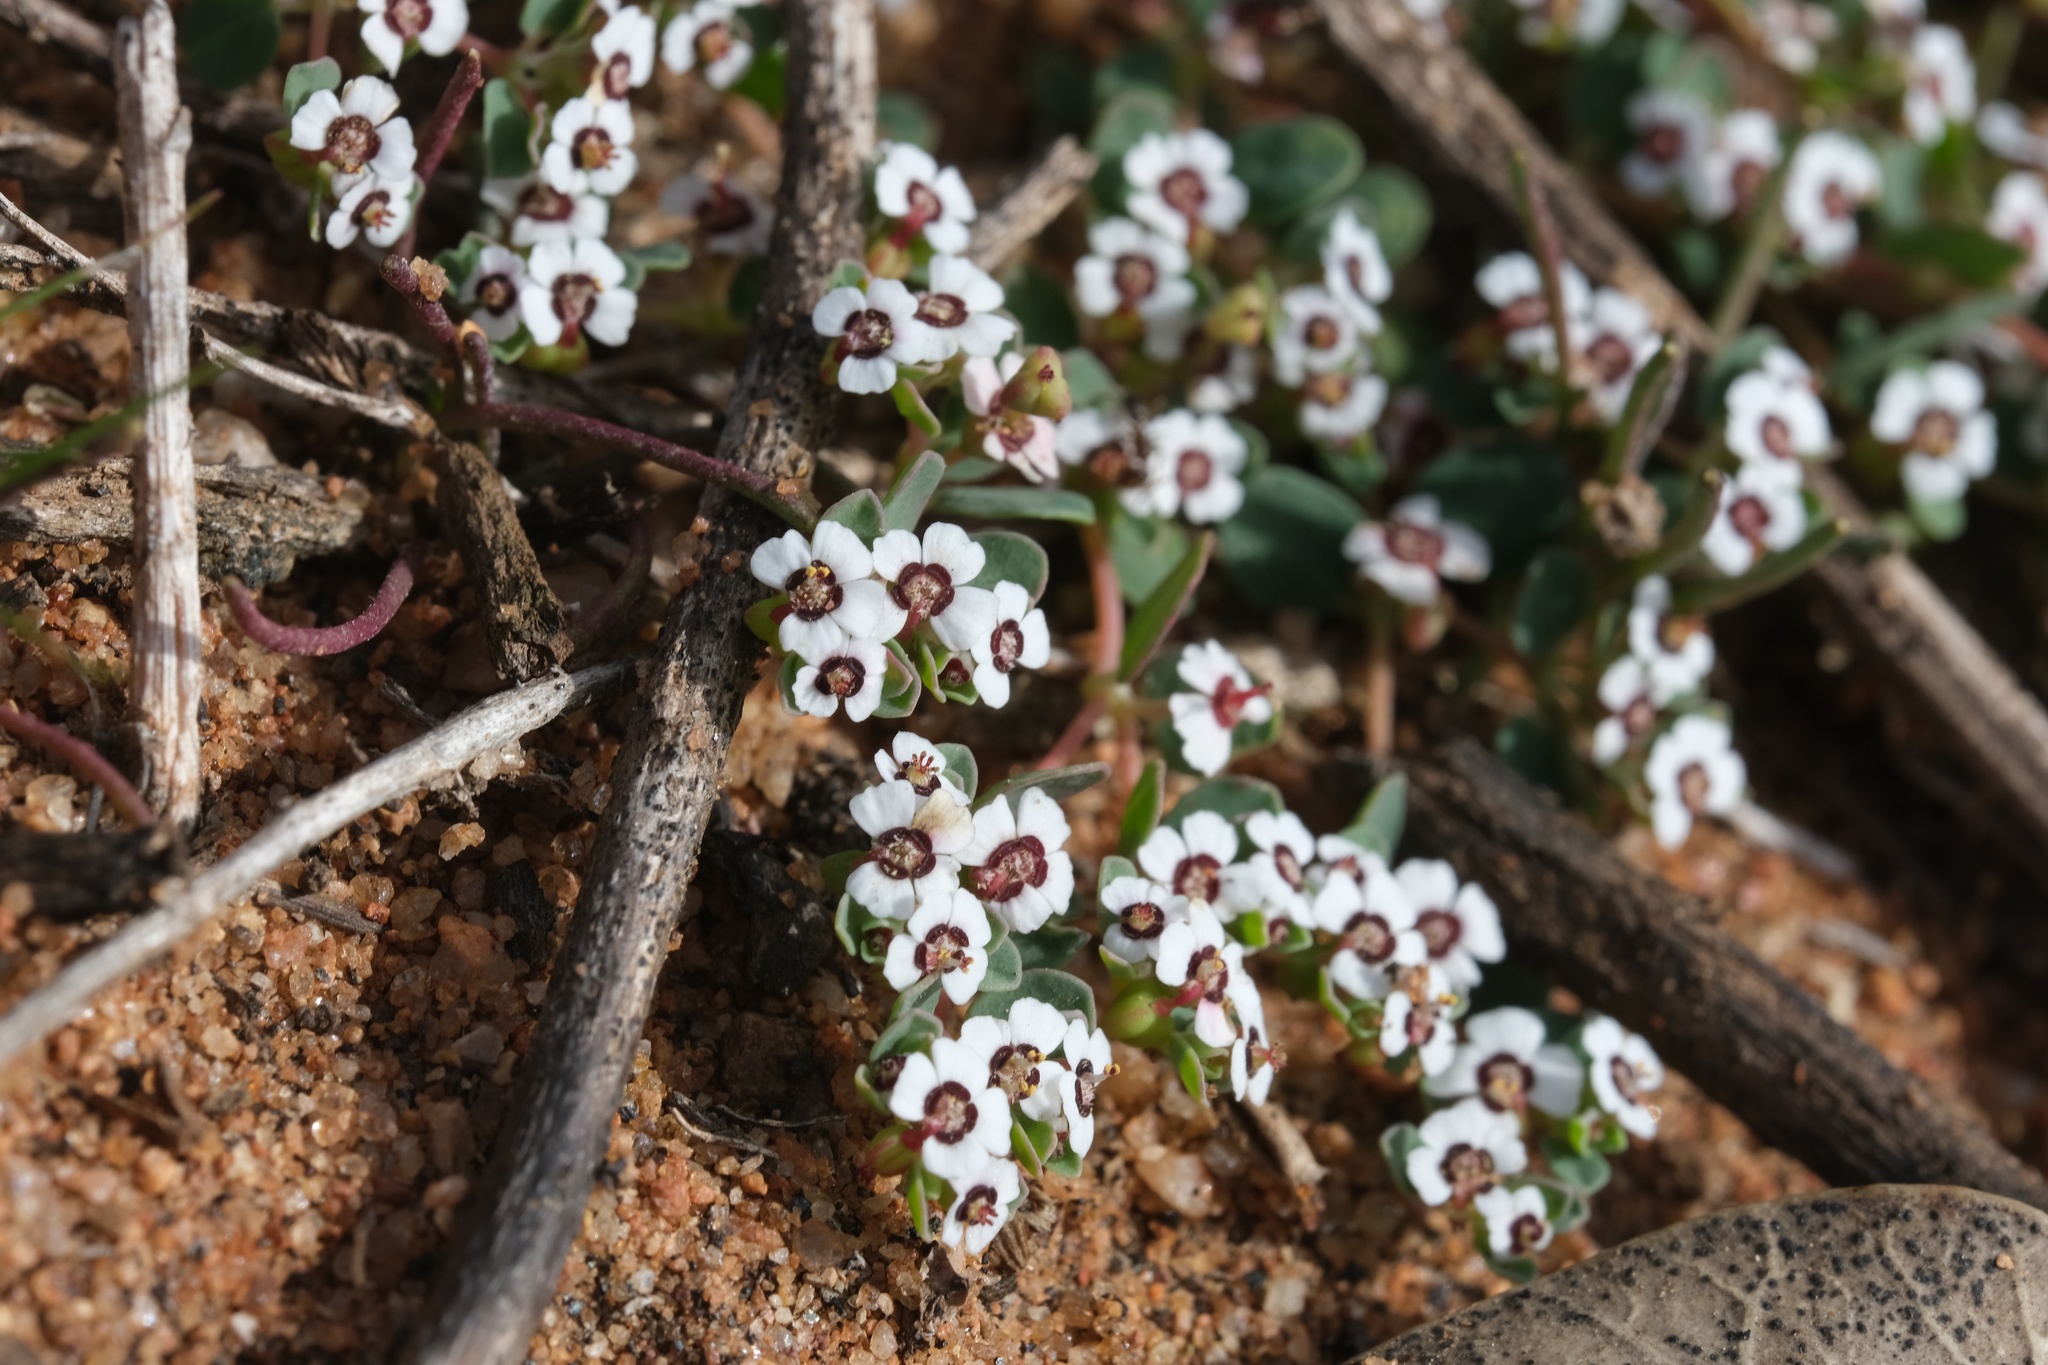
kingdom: Plantae
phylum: Tracheophyta
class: Magnoliopsida
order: Malpighiales
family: Euphorbiaceae
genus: Euphorbia
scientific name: Euphorbia polycarpa
